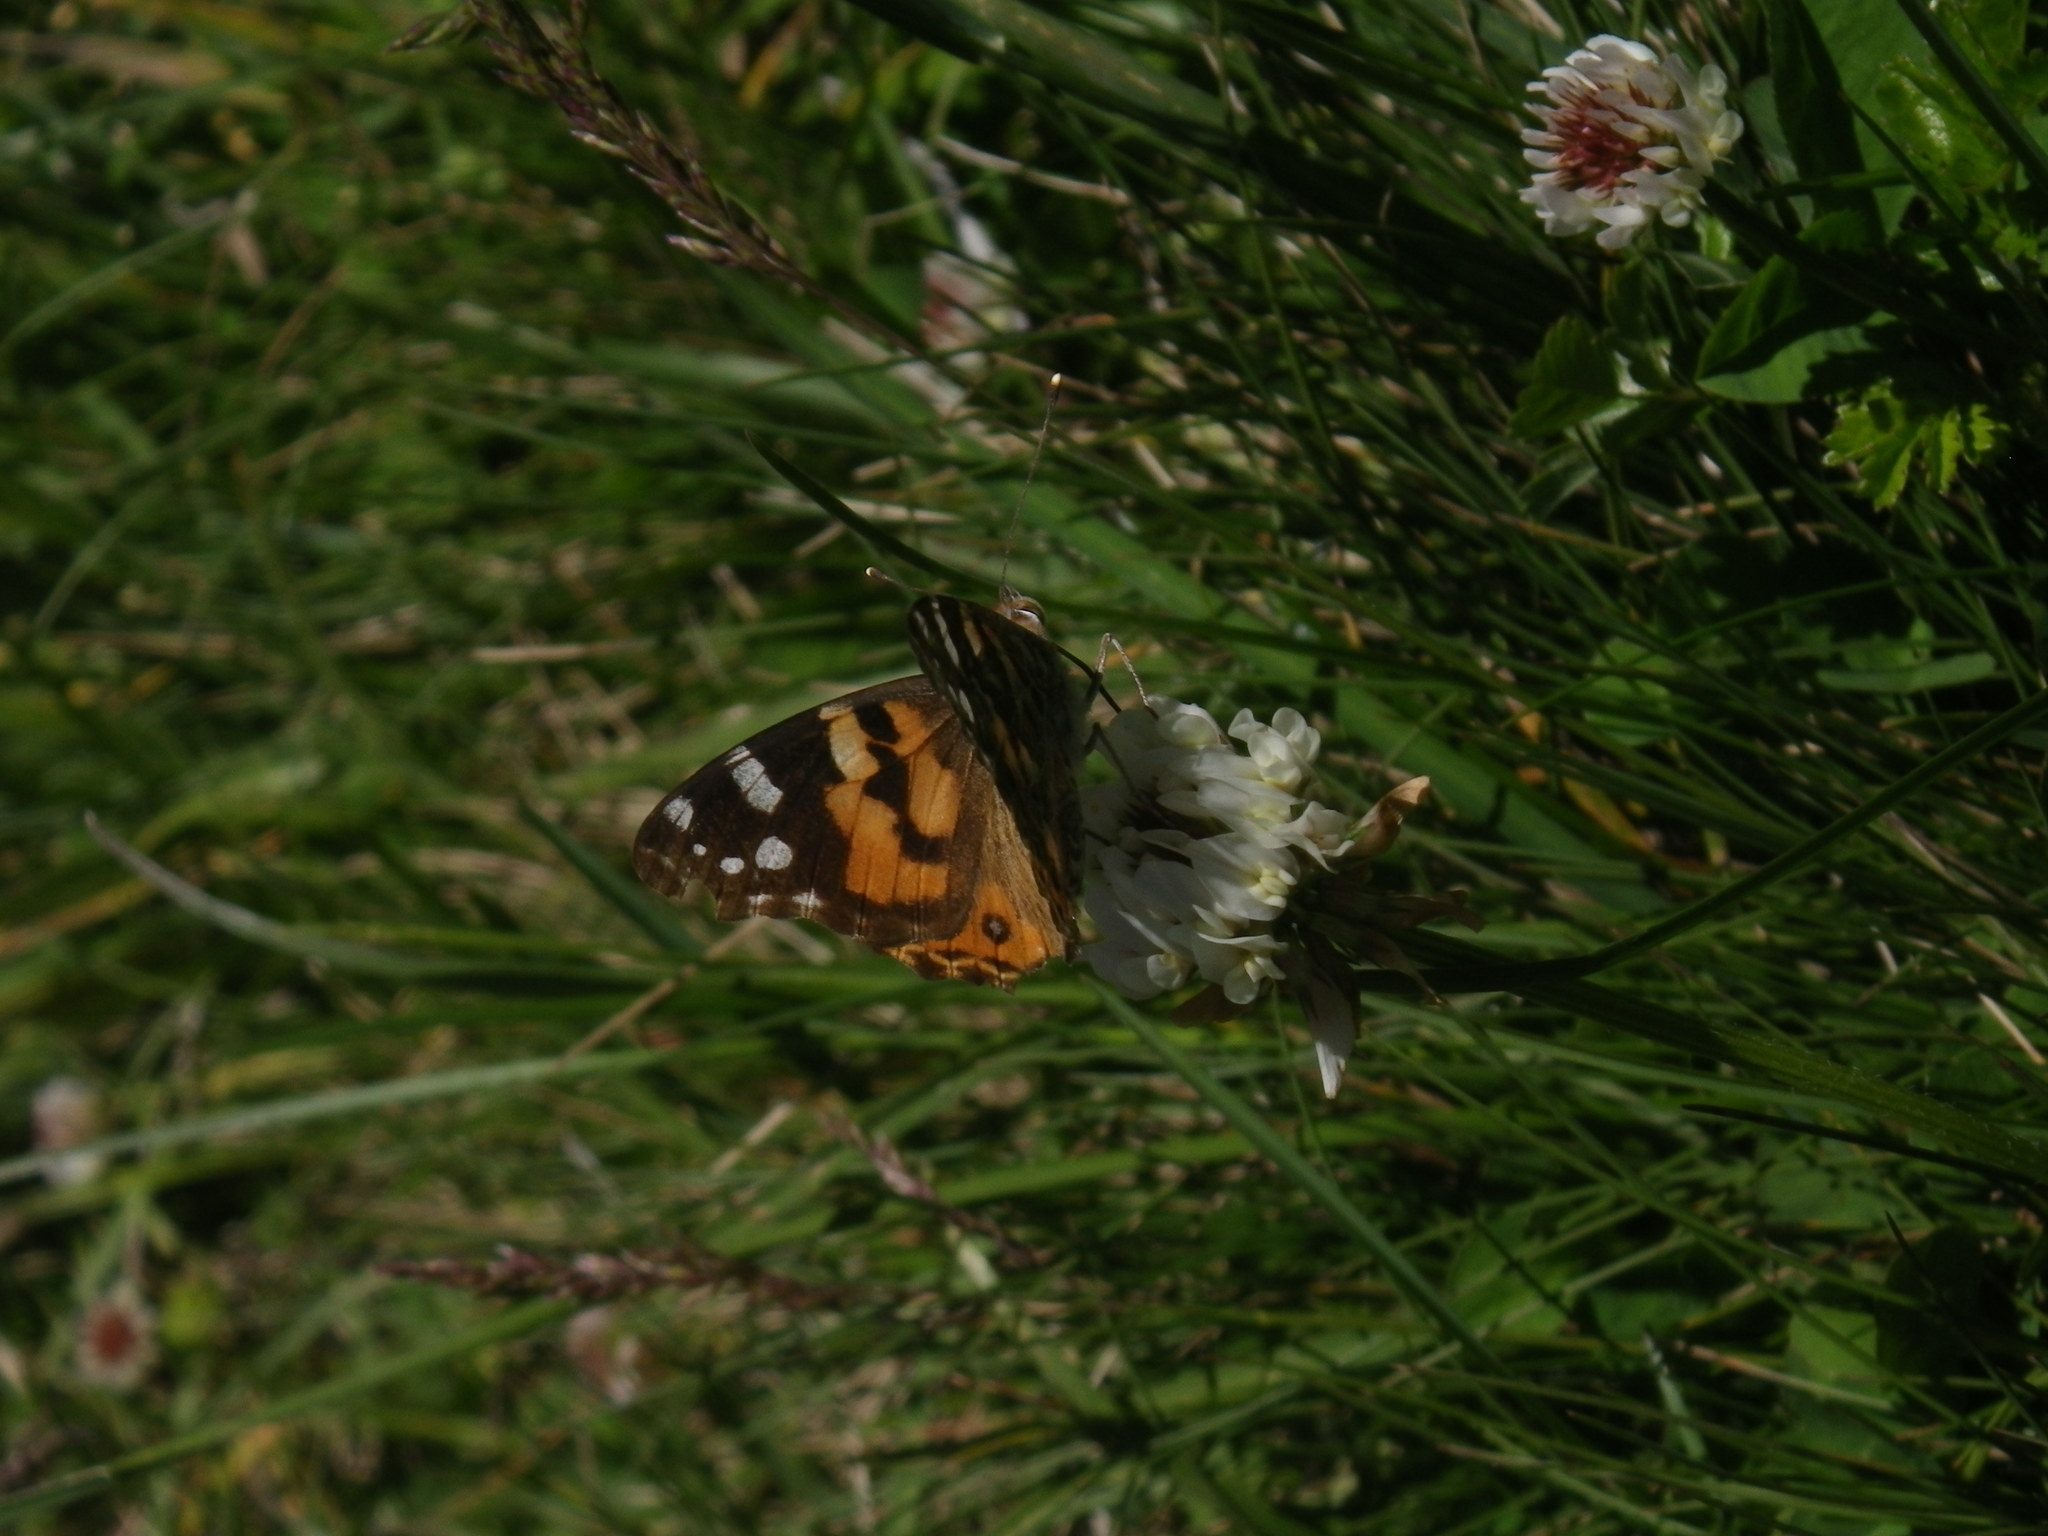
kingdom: Animalia
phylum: Arthropoda
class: Insecta
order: Lepidoptera
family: Nymphalidae
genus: Vanessa
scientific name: Vanessa kershawi
